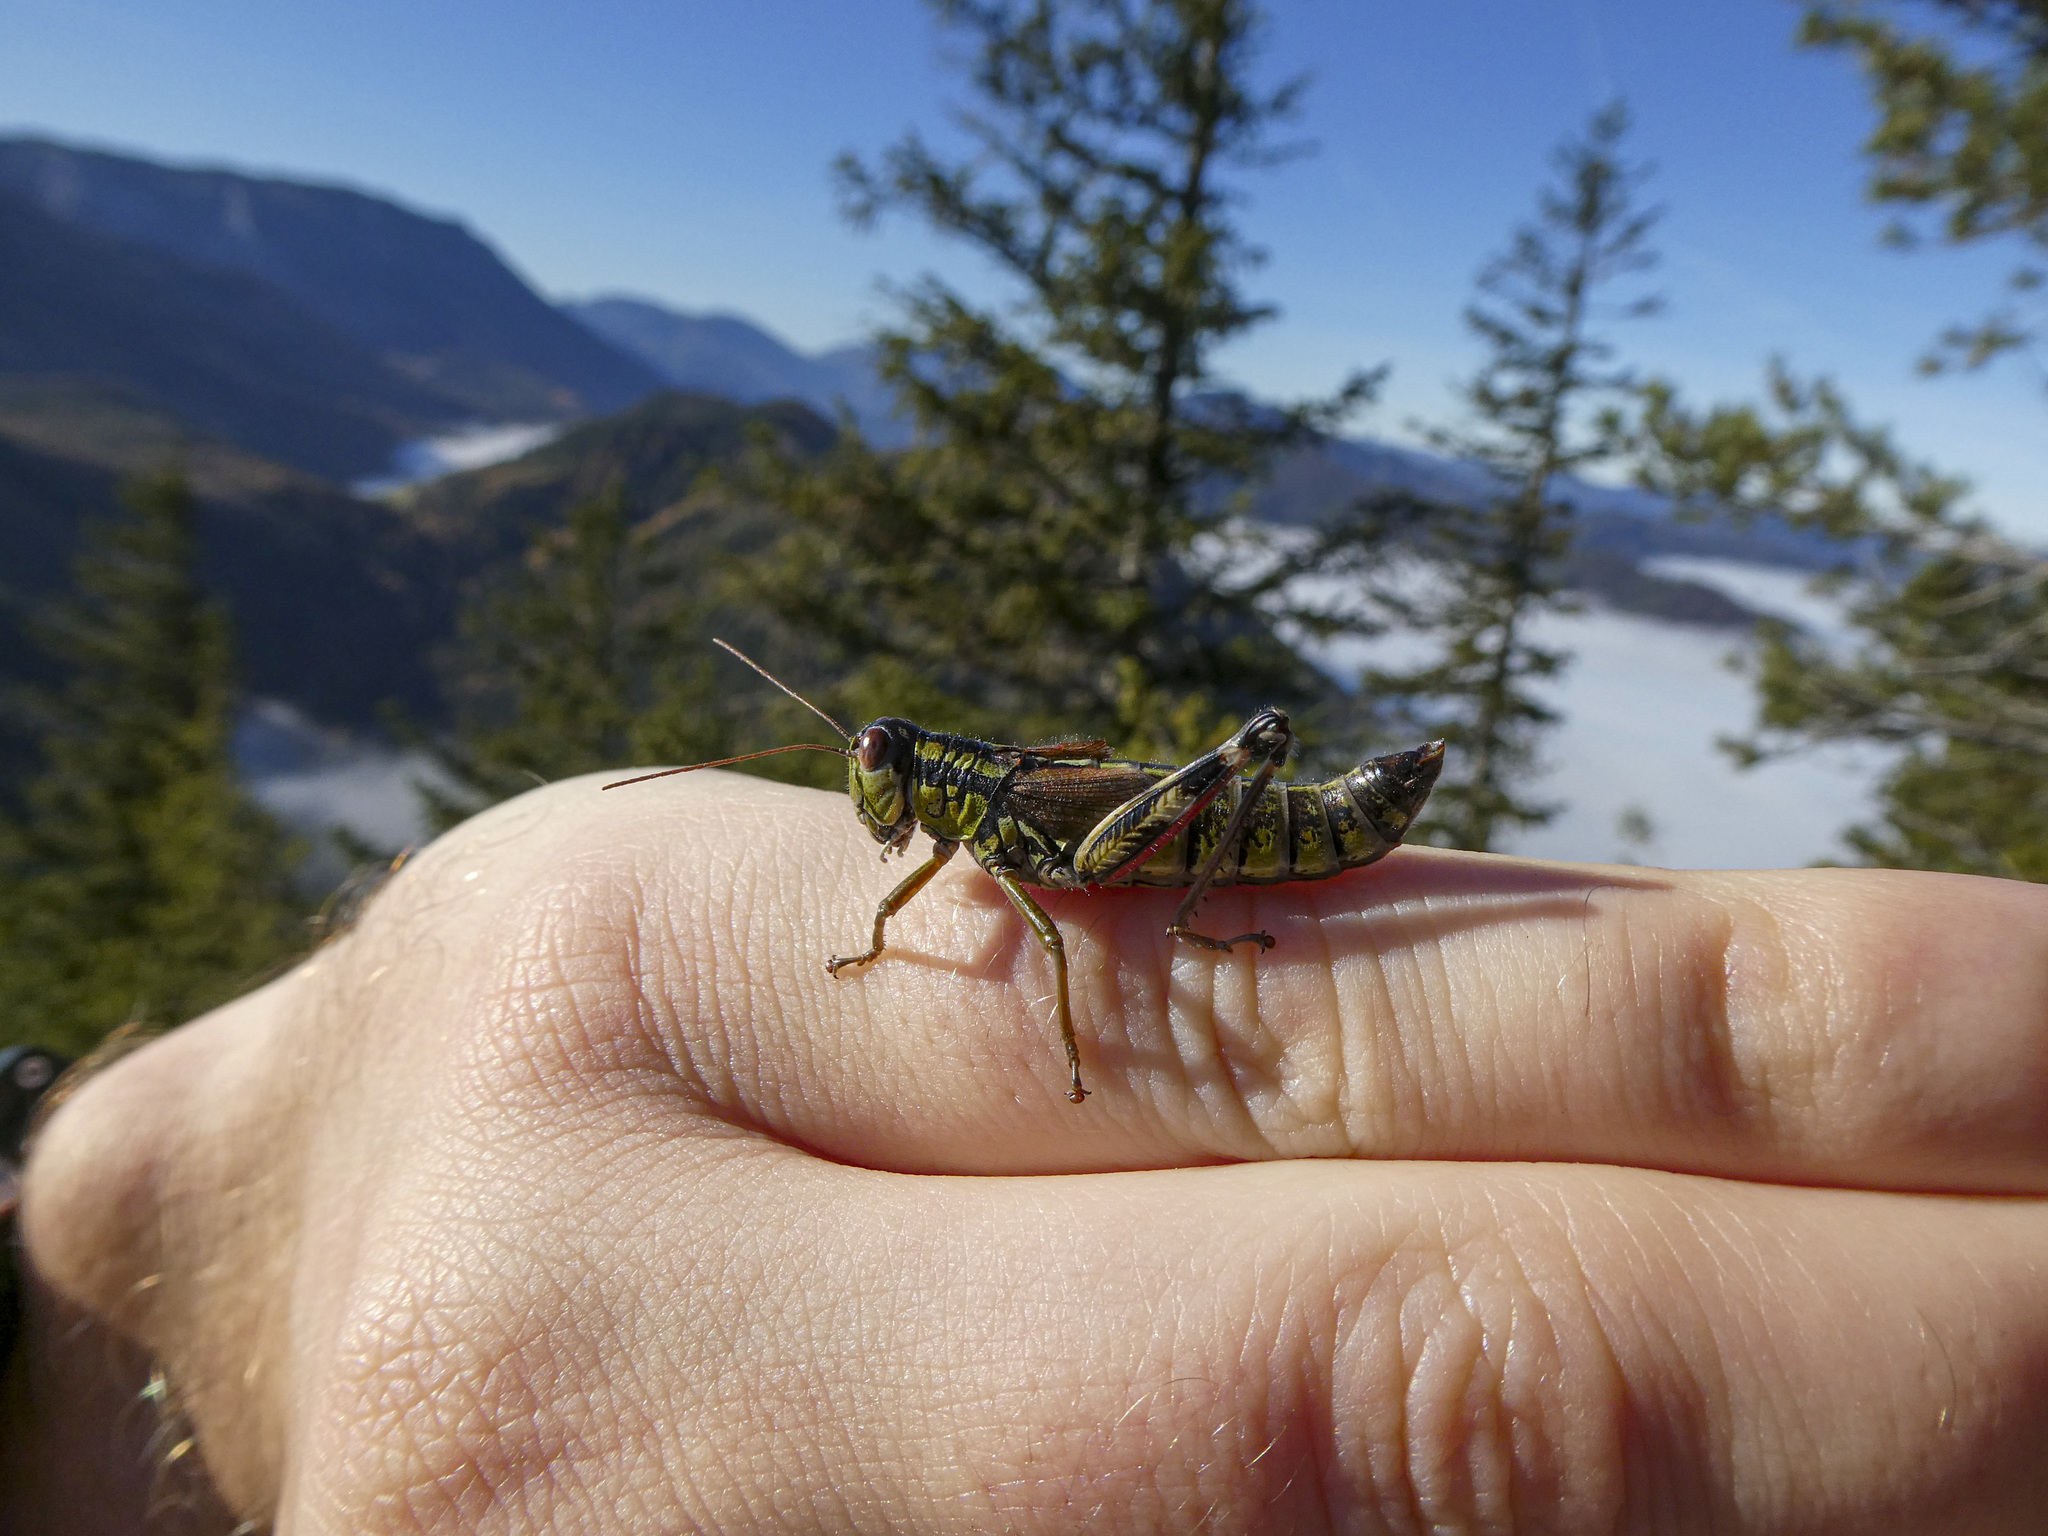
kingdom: Animalia
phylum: Arthropoda
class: Insecta
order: Orthoptera
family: Acrididae
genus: Miramella
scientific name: Miramella alpina
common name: Green mountain grasshopper
